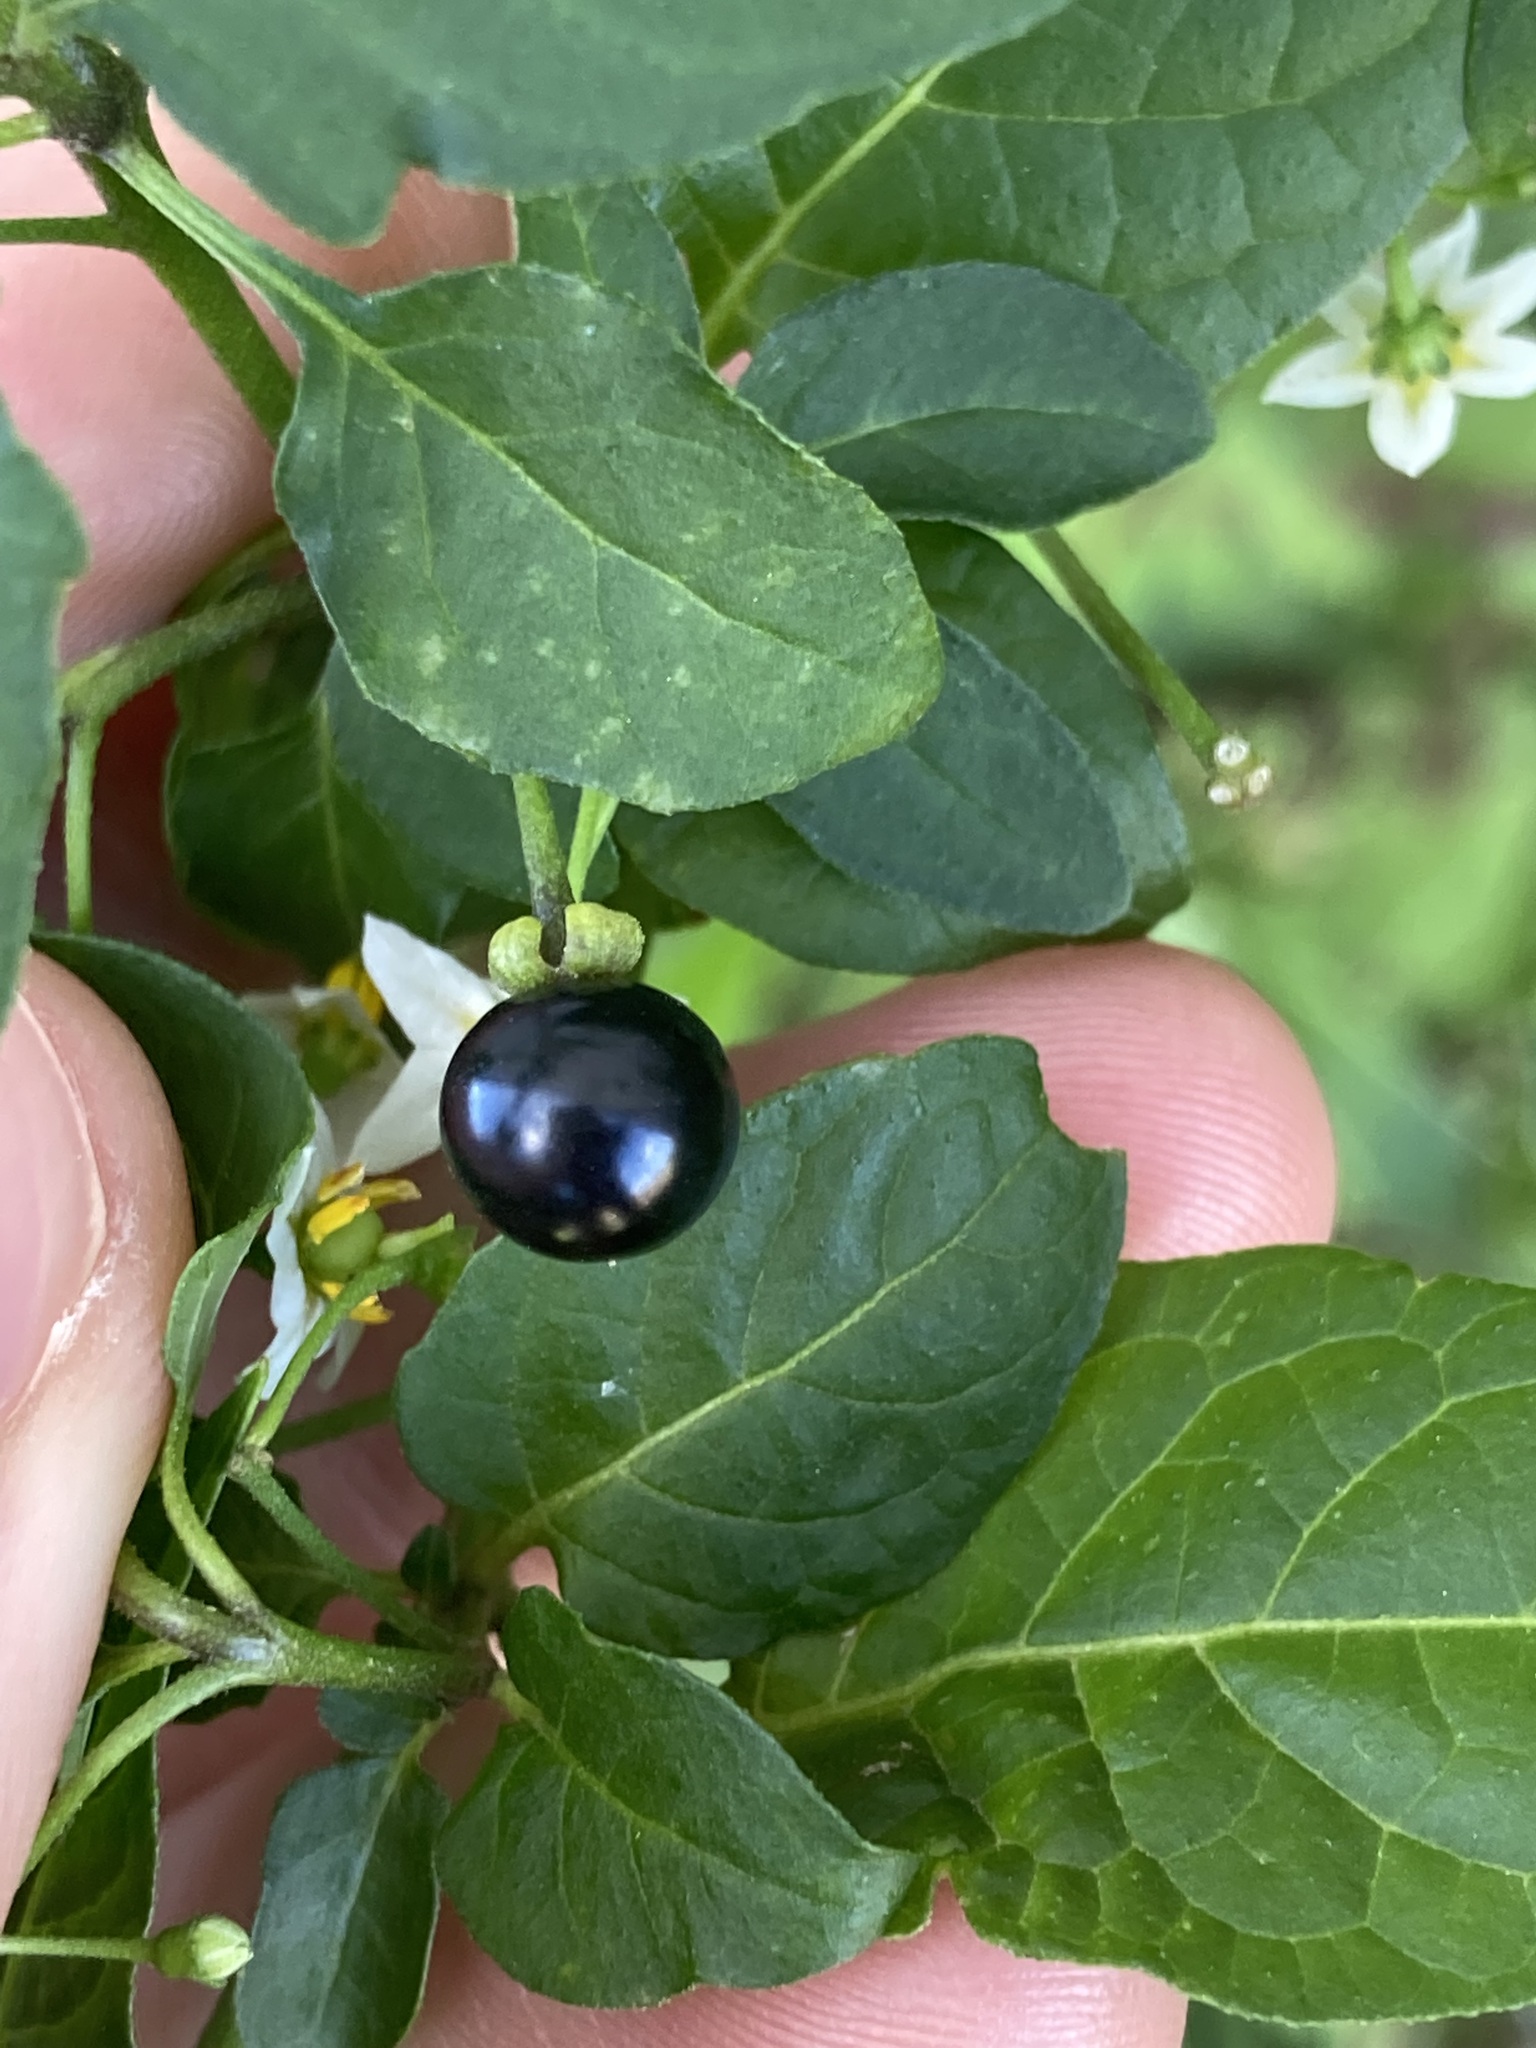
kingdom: Plantae
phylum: Tracheophyta
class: Magnoliopsida
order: Solanales
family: Solanaceae
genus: Solanum
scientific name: Solanum americanum
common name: American black nightshade
